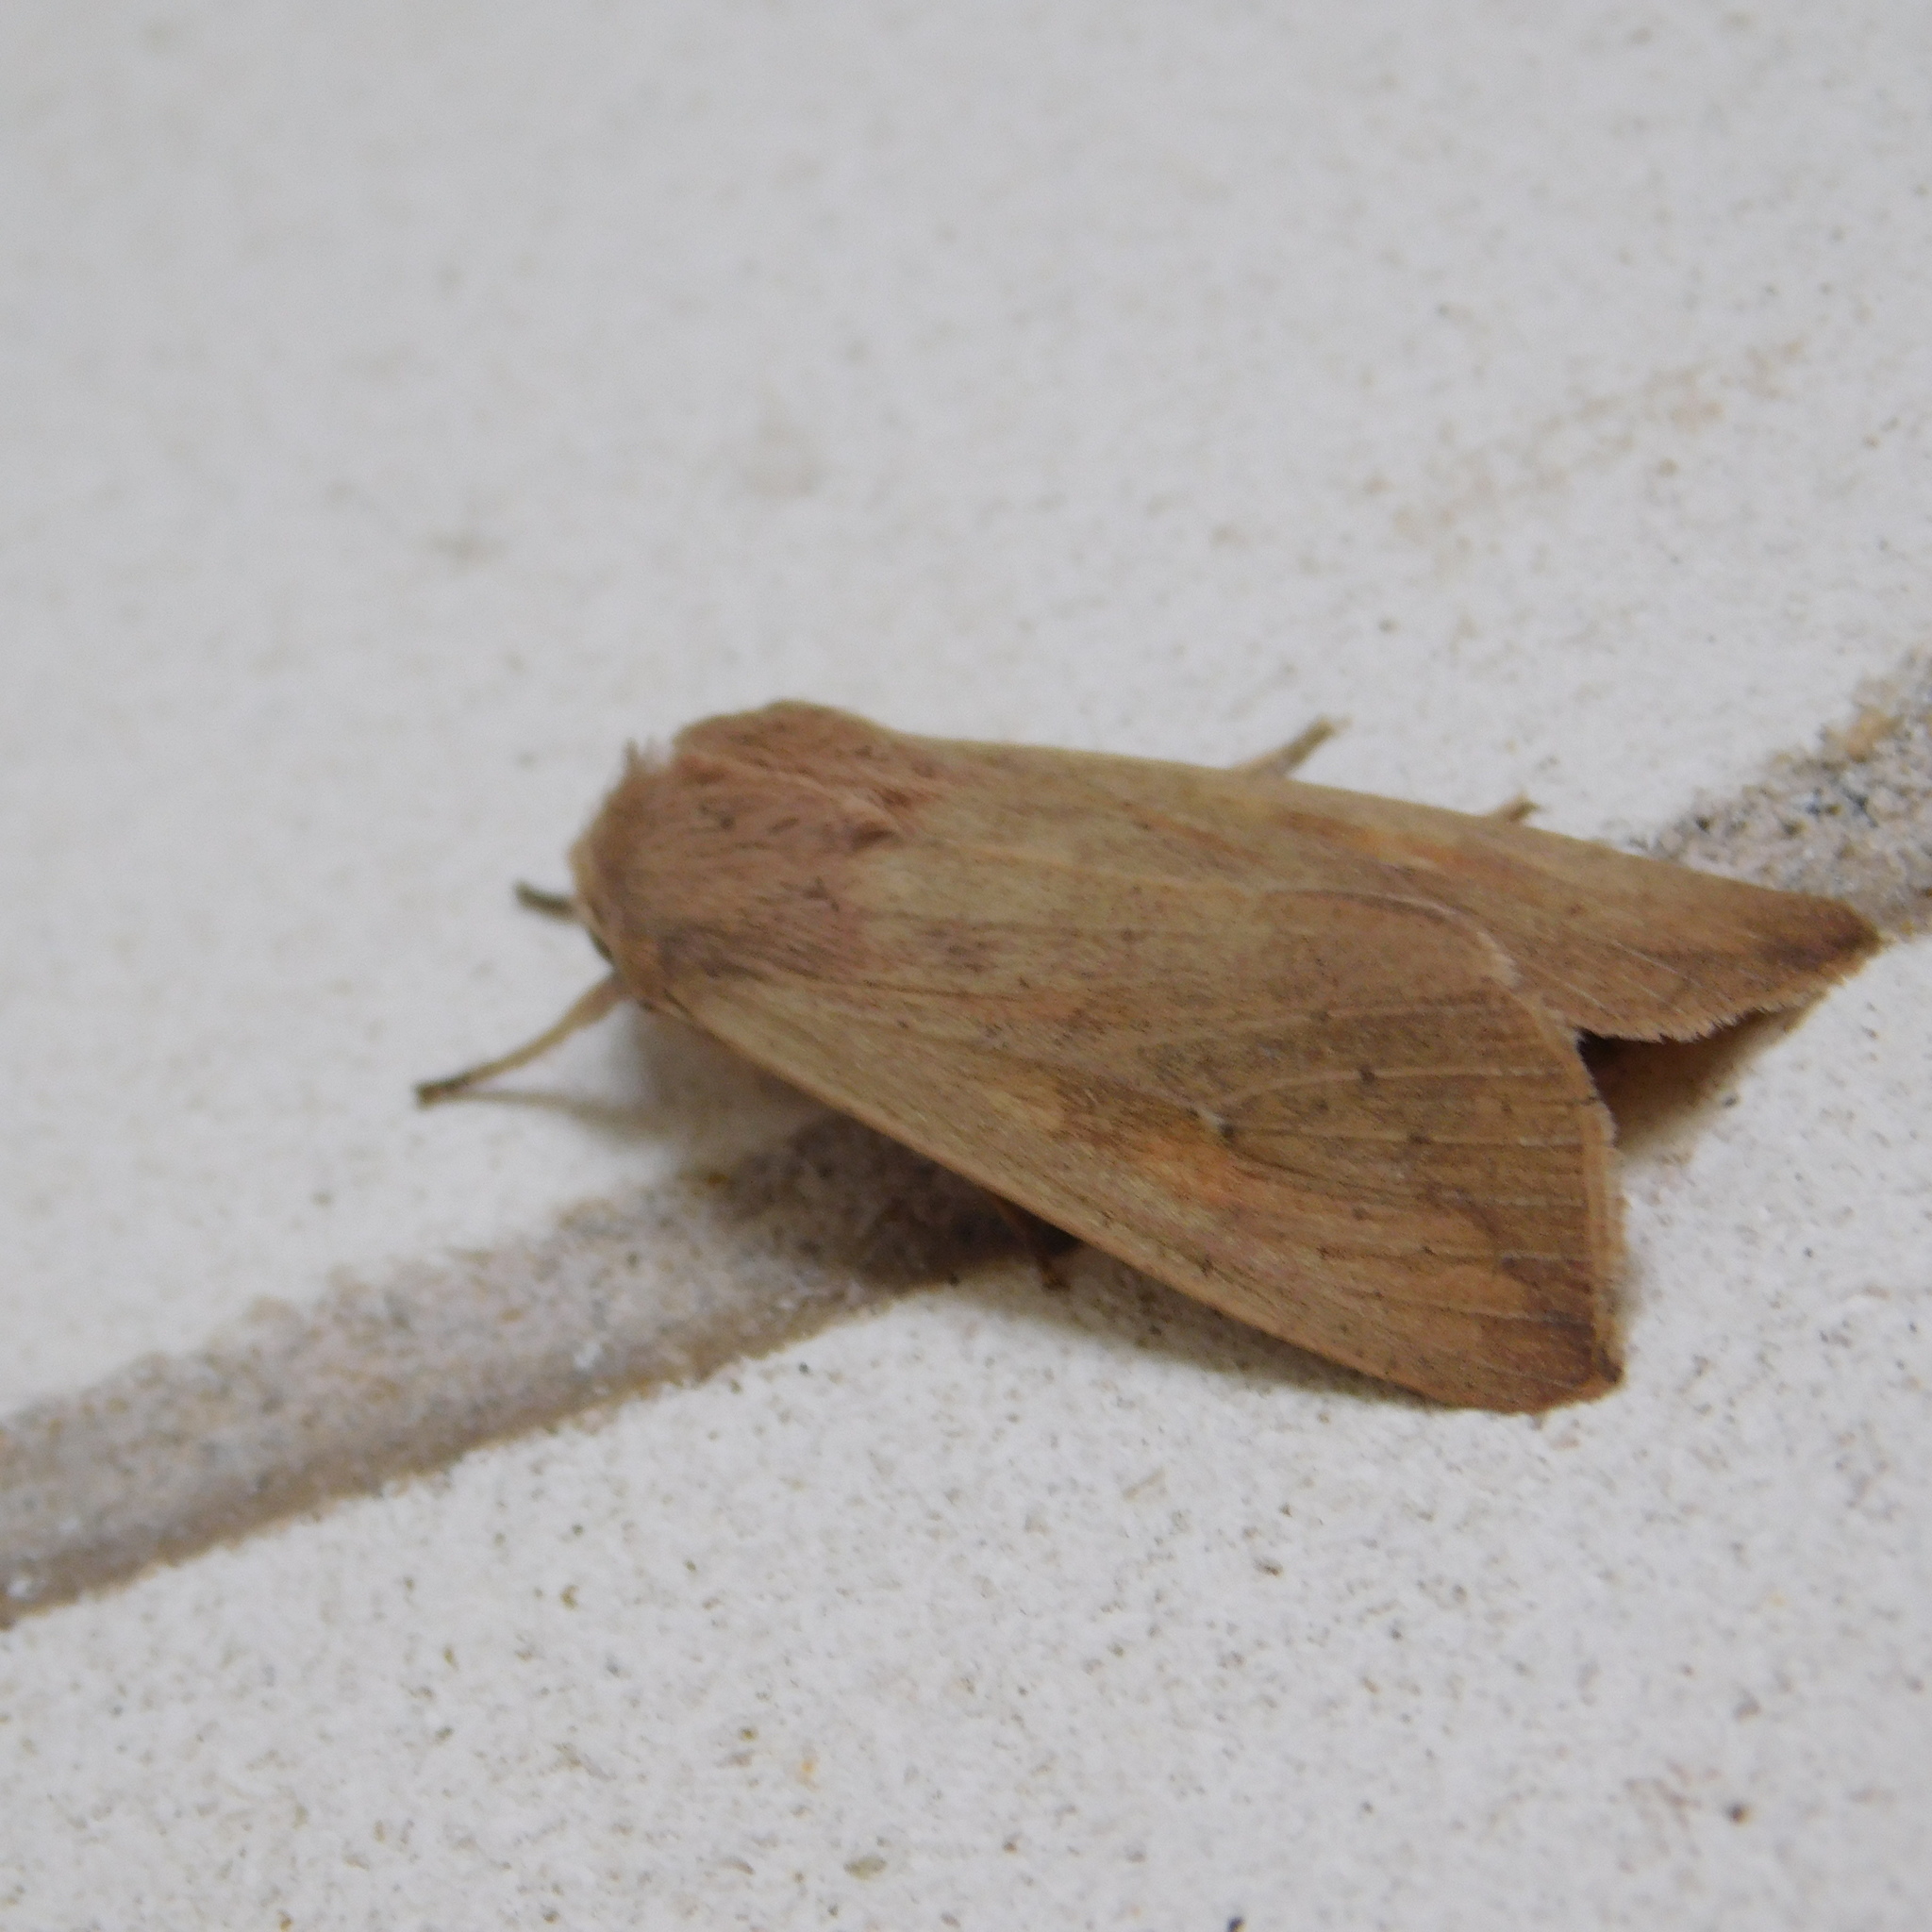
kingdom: Animalia
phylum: Arthropoda
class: Insecta
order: Lepidoptera
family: Noctuidae
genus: Mythimna
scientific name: Mythimna separata
